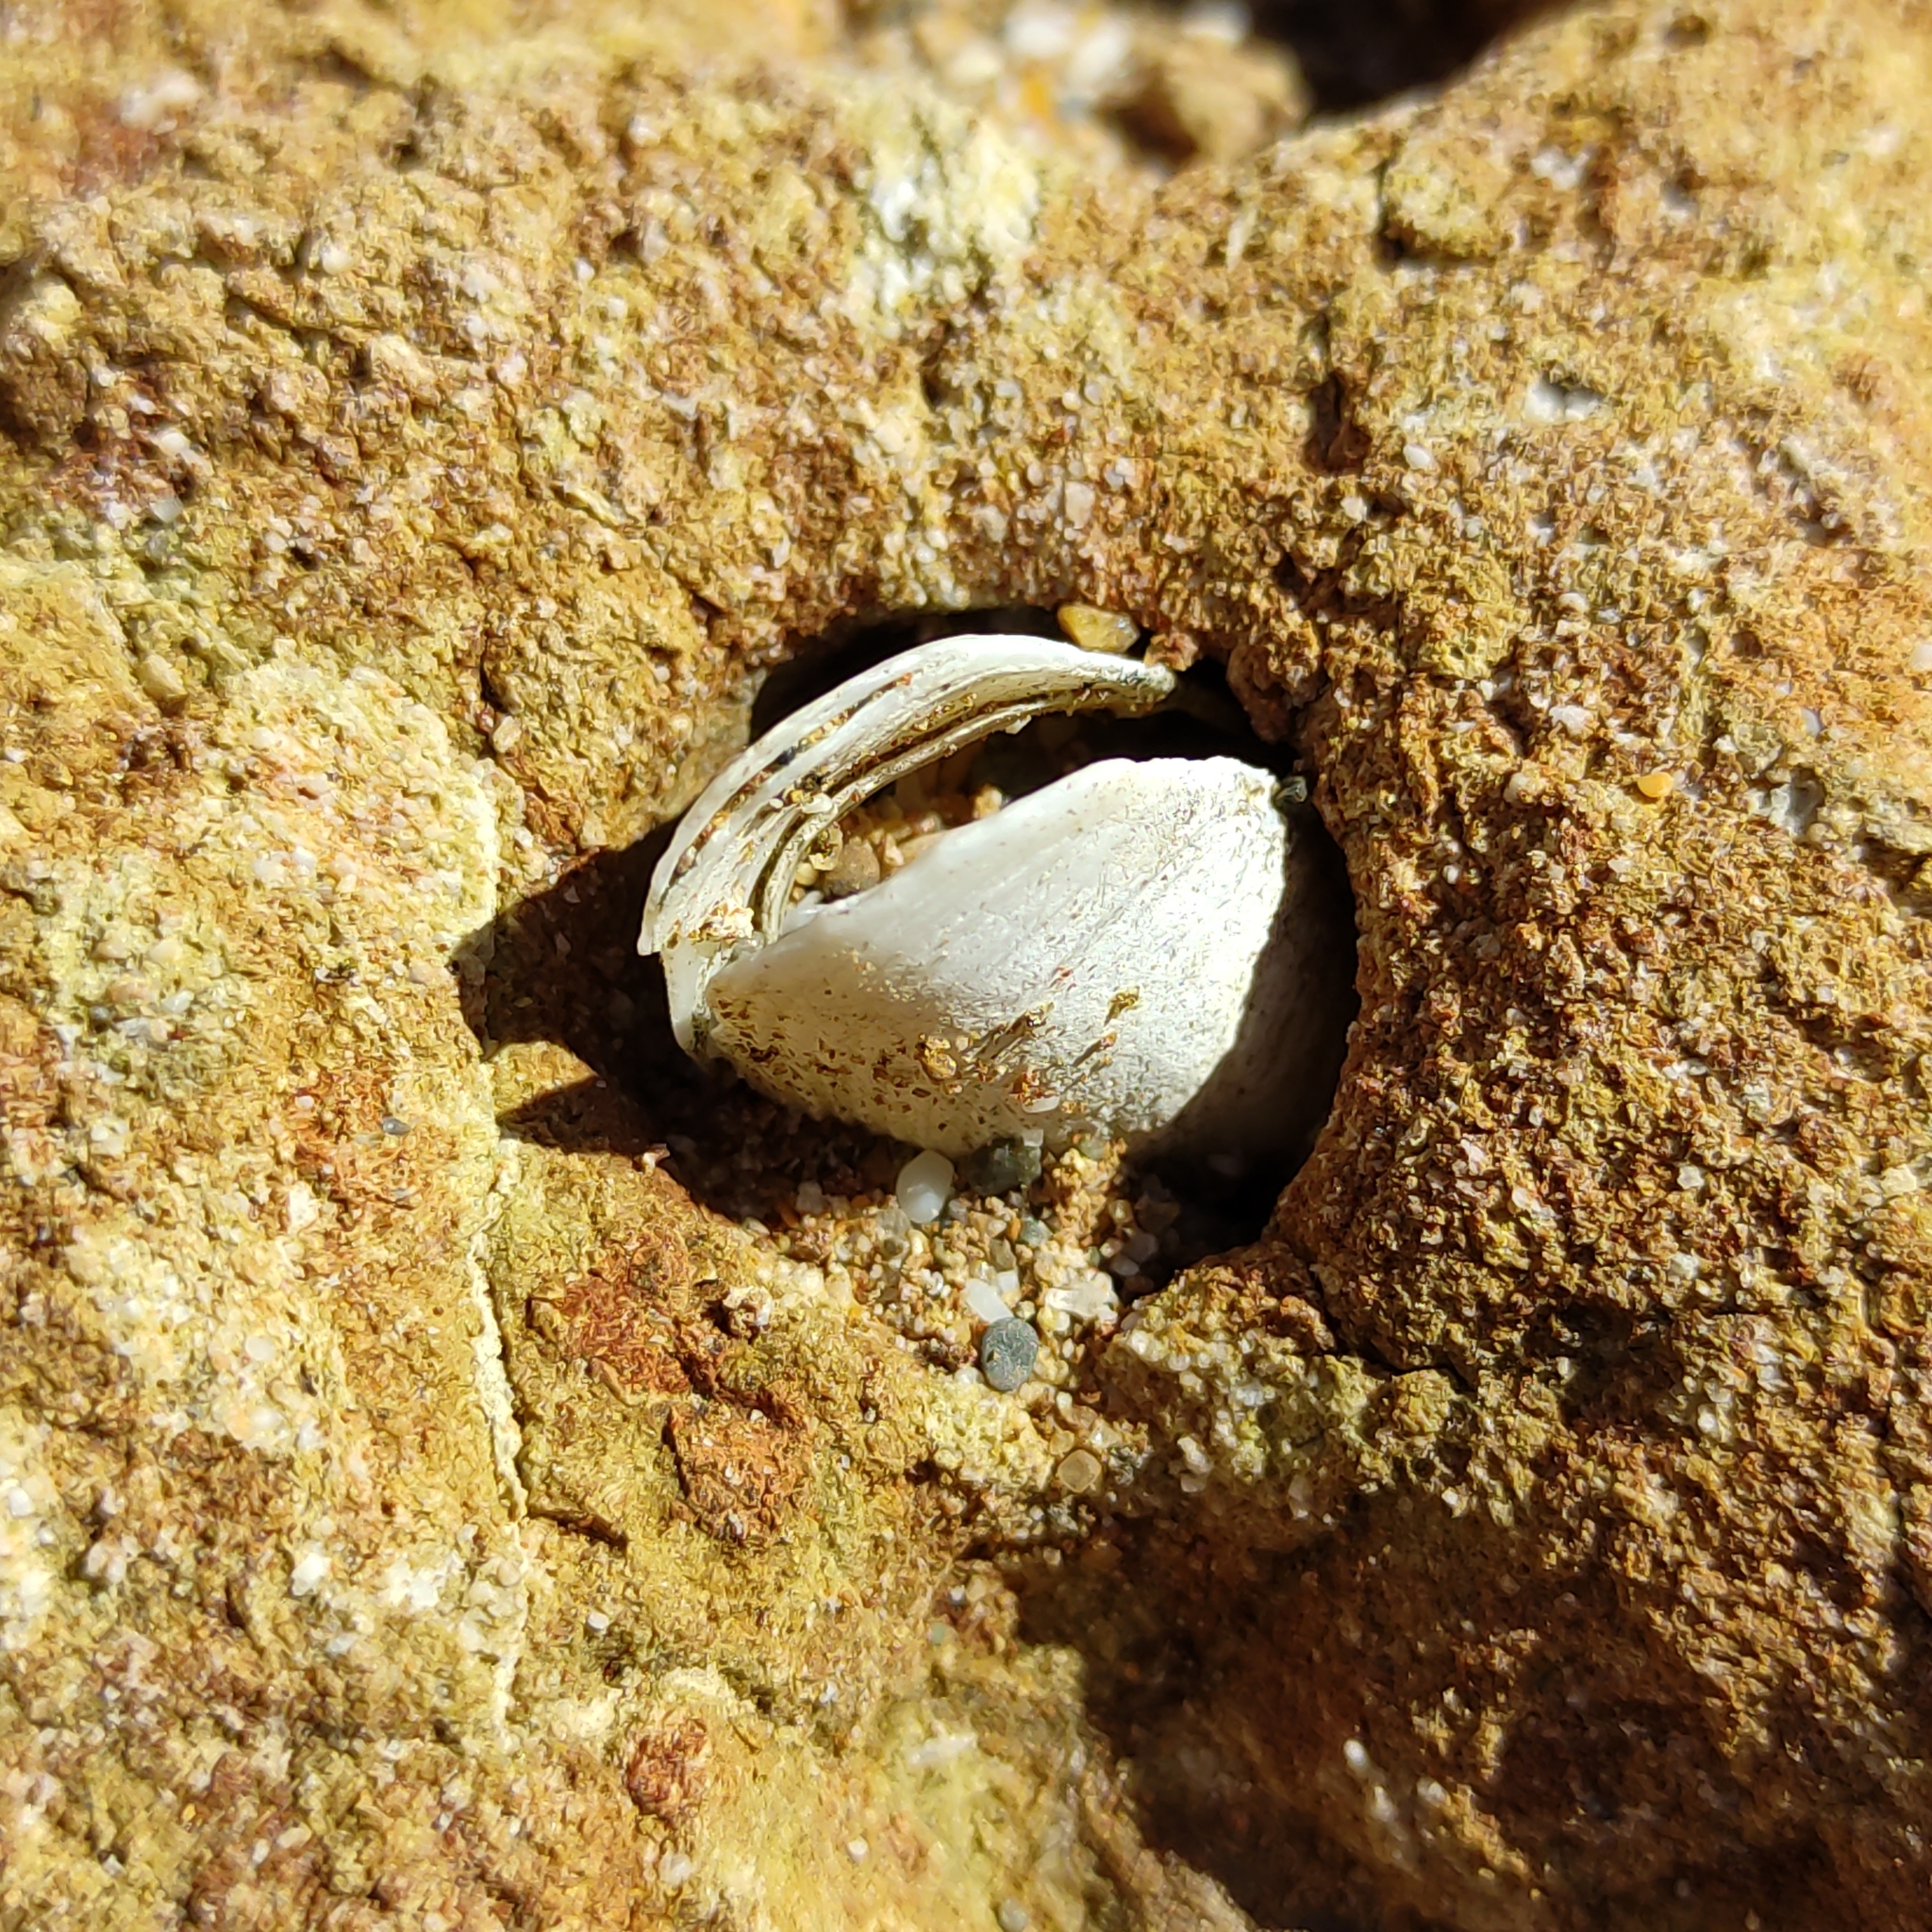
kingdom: Animalia
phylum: Mollusca
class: Bivalvia
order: Mytilida
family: Mytilidae
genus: Zelithophaga
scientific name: Zelithophaga truncata
